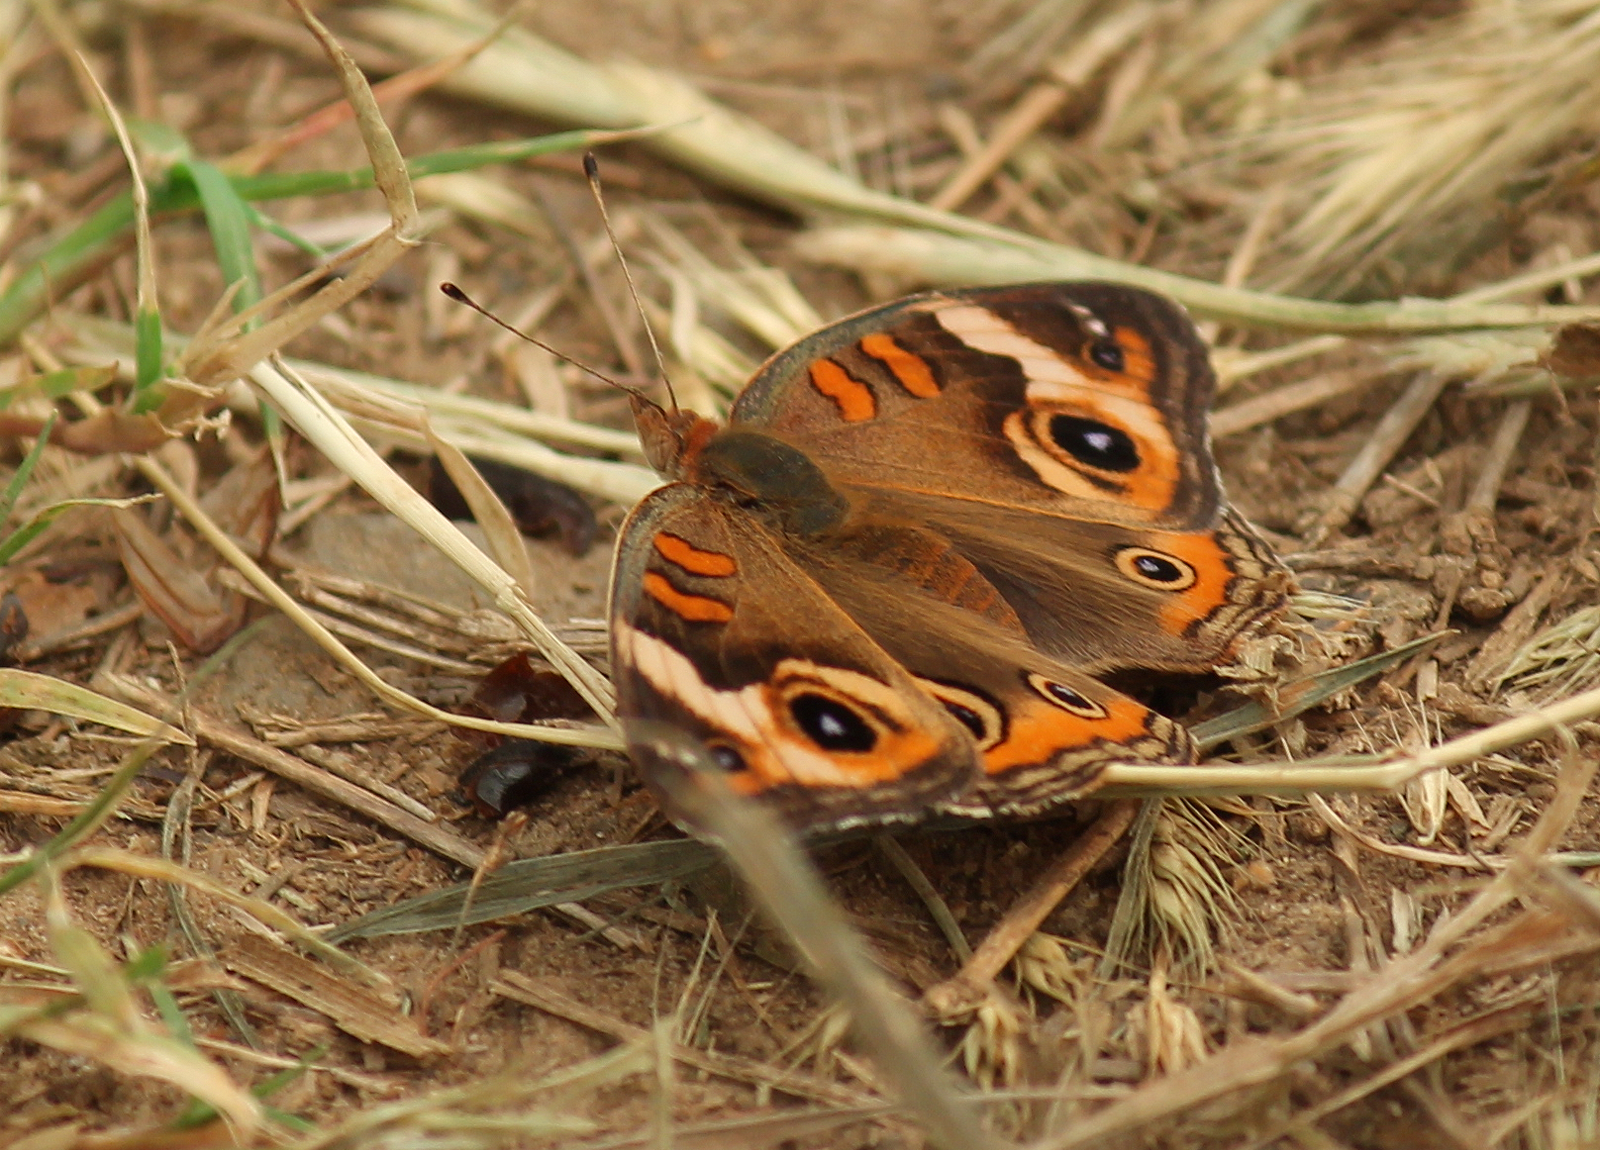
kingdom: Animalia
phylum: Arthropoda
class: Insecta
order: Lepidoptera
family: Nymphalidae
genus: Junonia
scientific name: Junonia coenia
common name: Common buckeye
